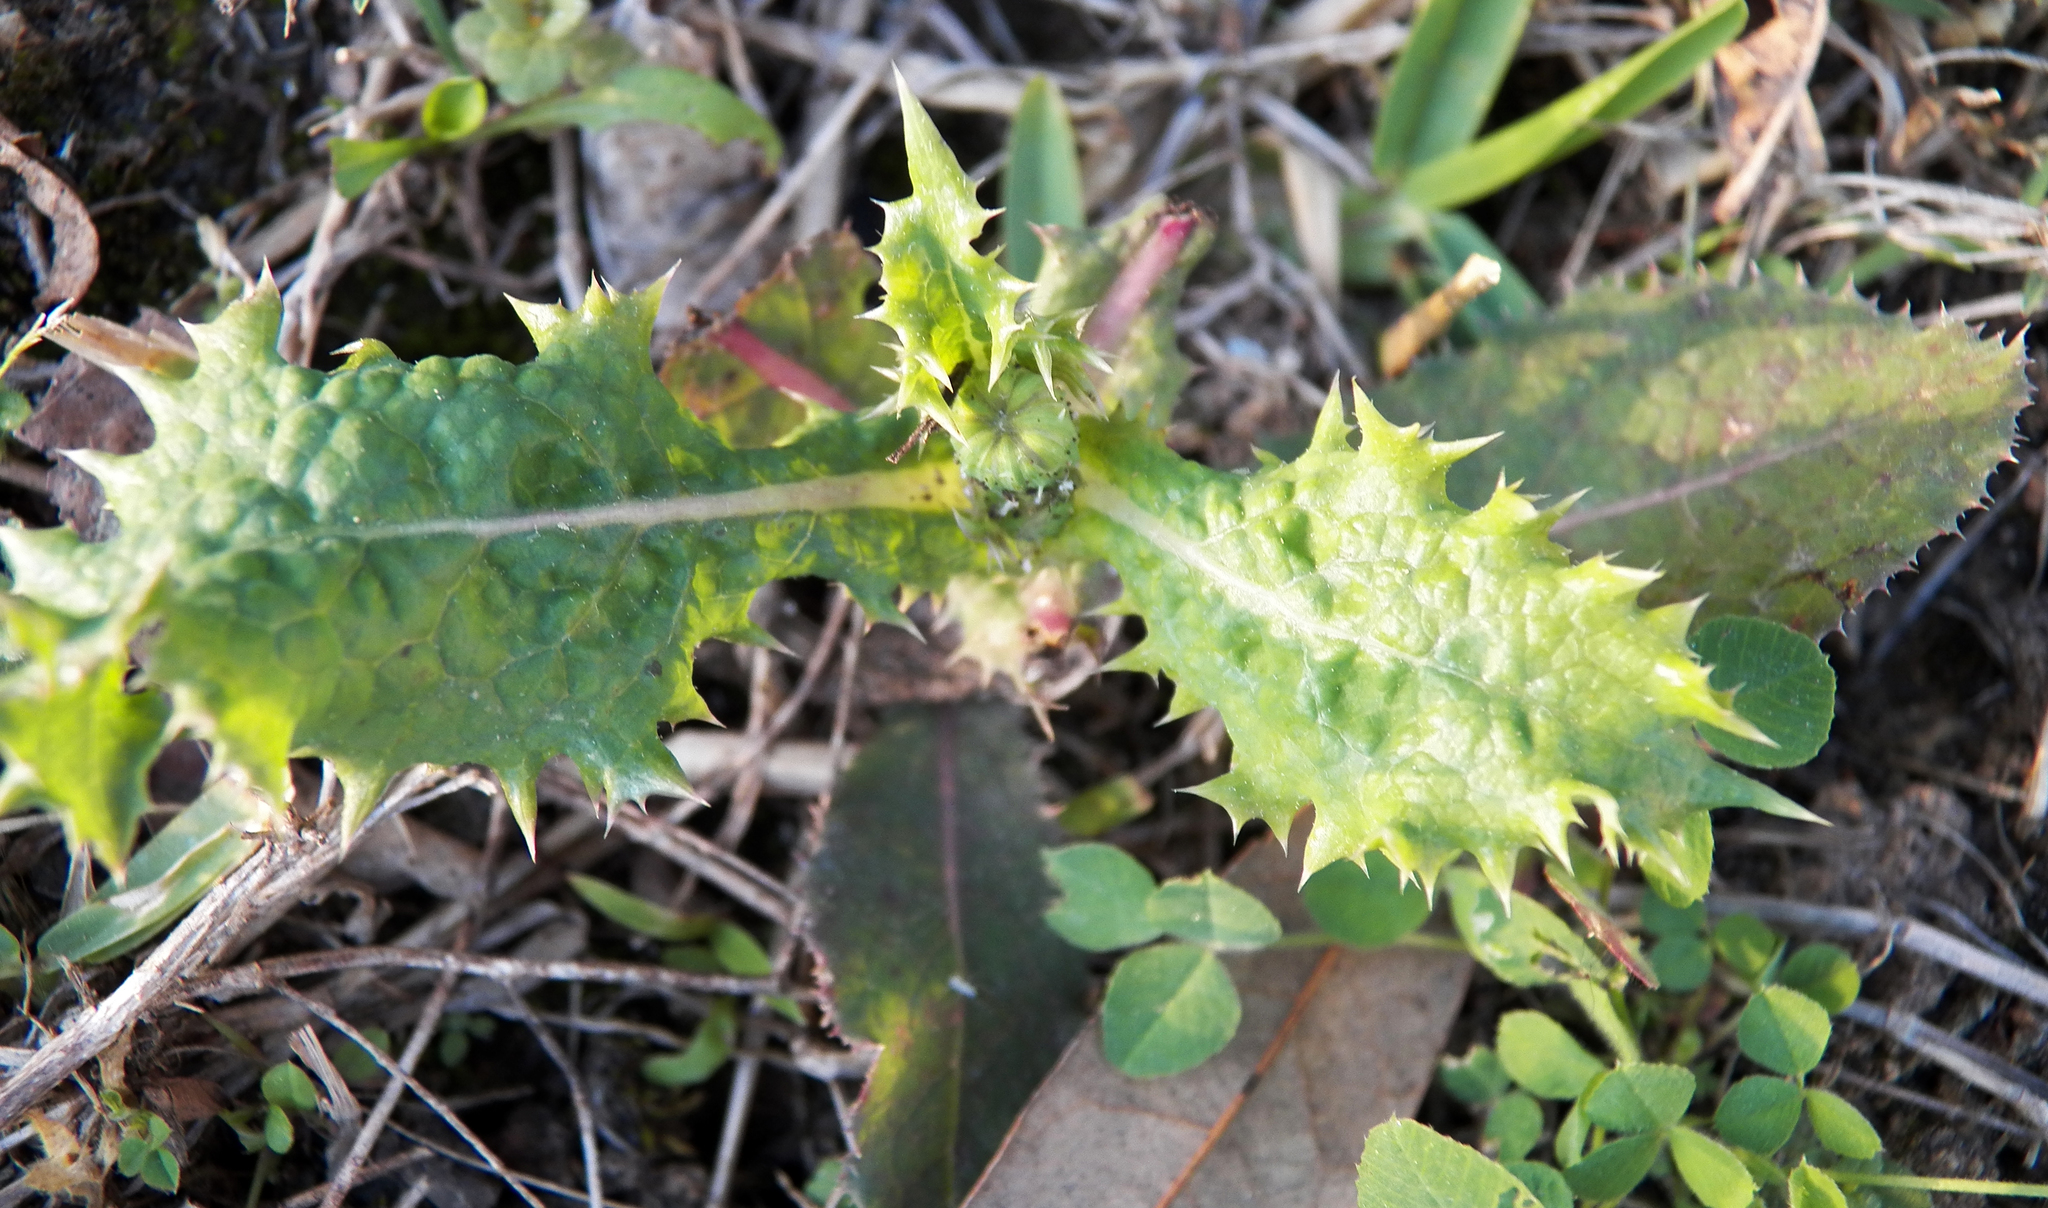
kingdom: Plantae
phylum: Tracheophyta
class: Magnoliopsida
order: Asterales
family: Asteraceae
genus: Sonchus
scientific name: Sonchus asper
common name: Prickly sow-thistle
